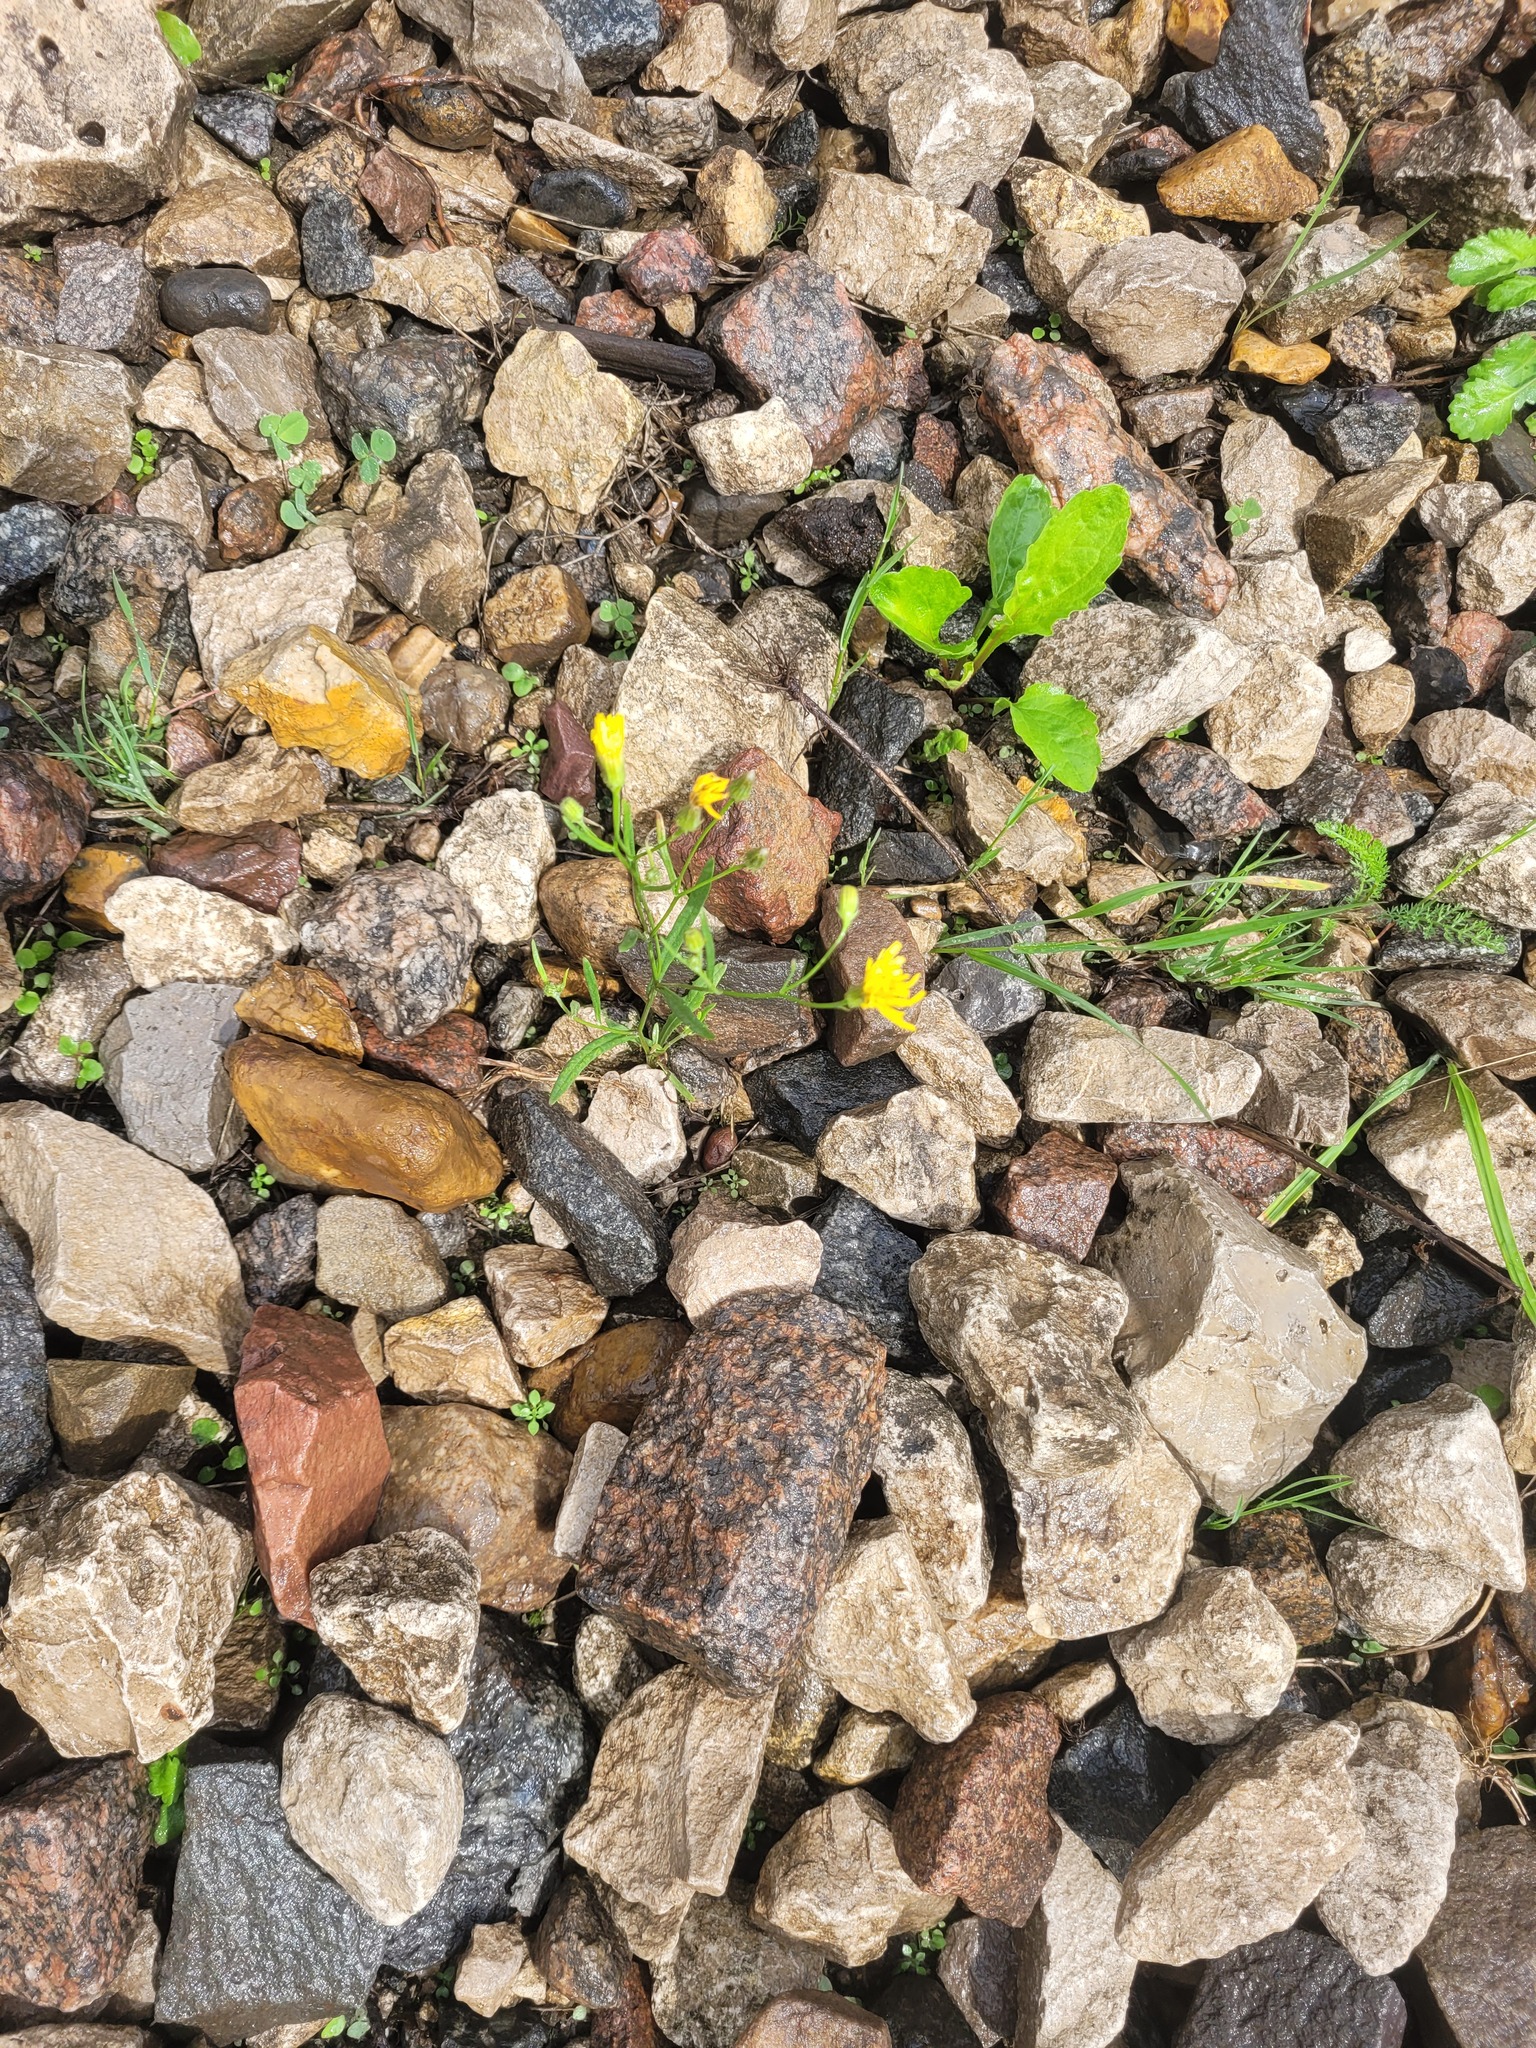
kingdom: Plantae
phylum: Tracheophyta
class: Magnoliopsida
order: Asterales
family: Asteraceae
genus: Crepis
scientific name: Crepis tectorum
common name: Narrow-leaved hawk's-beard
